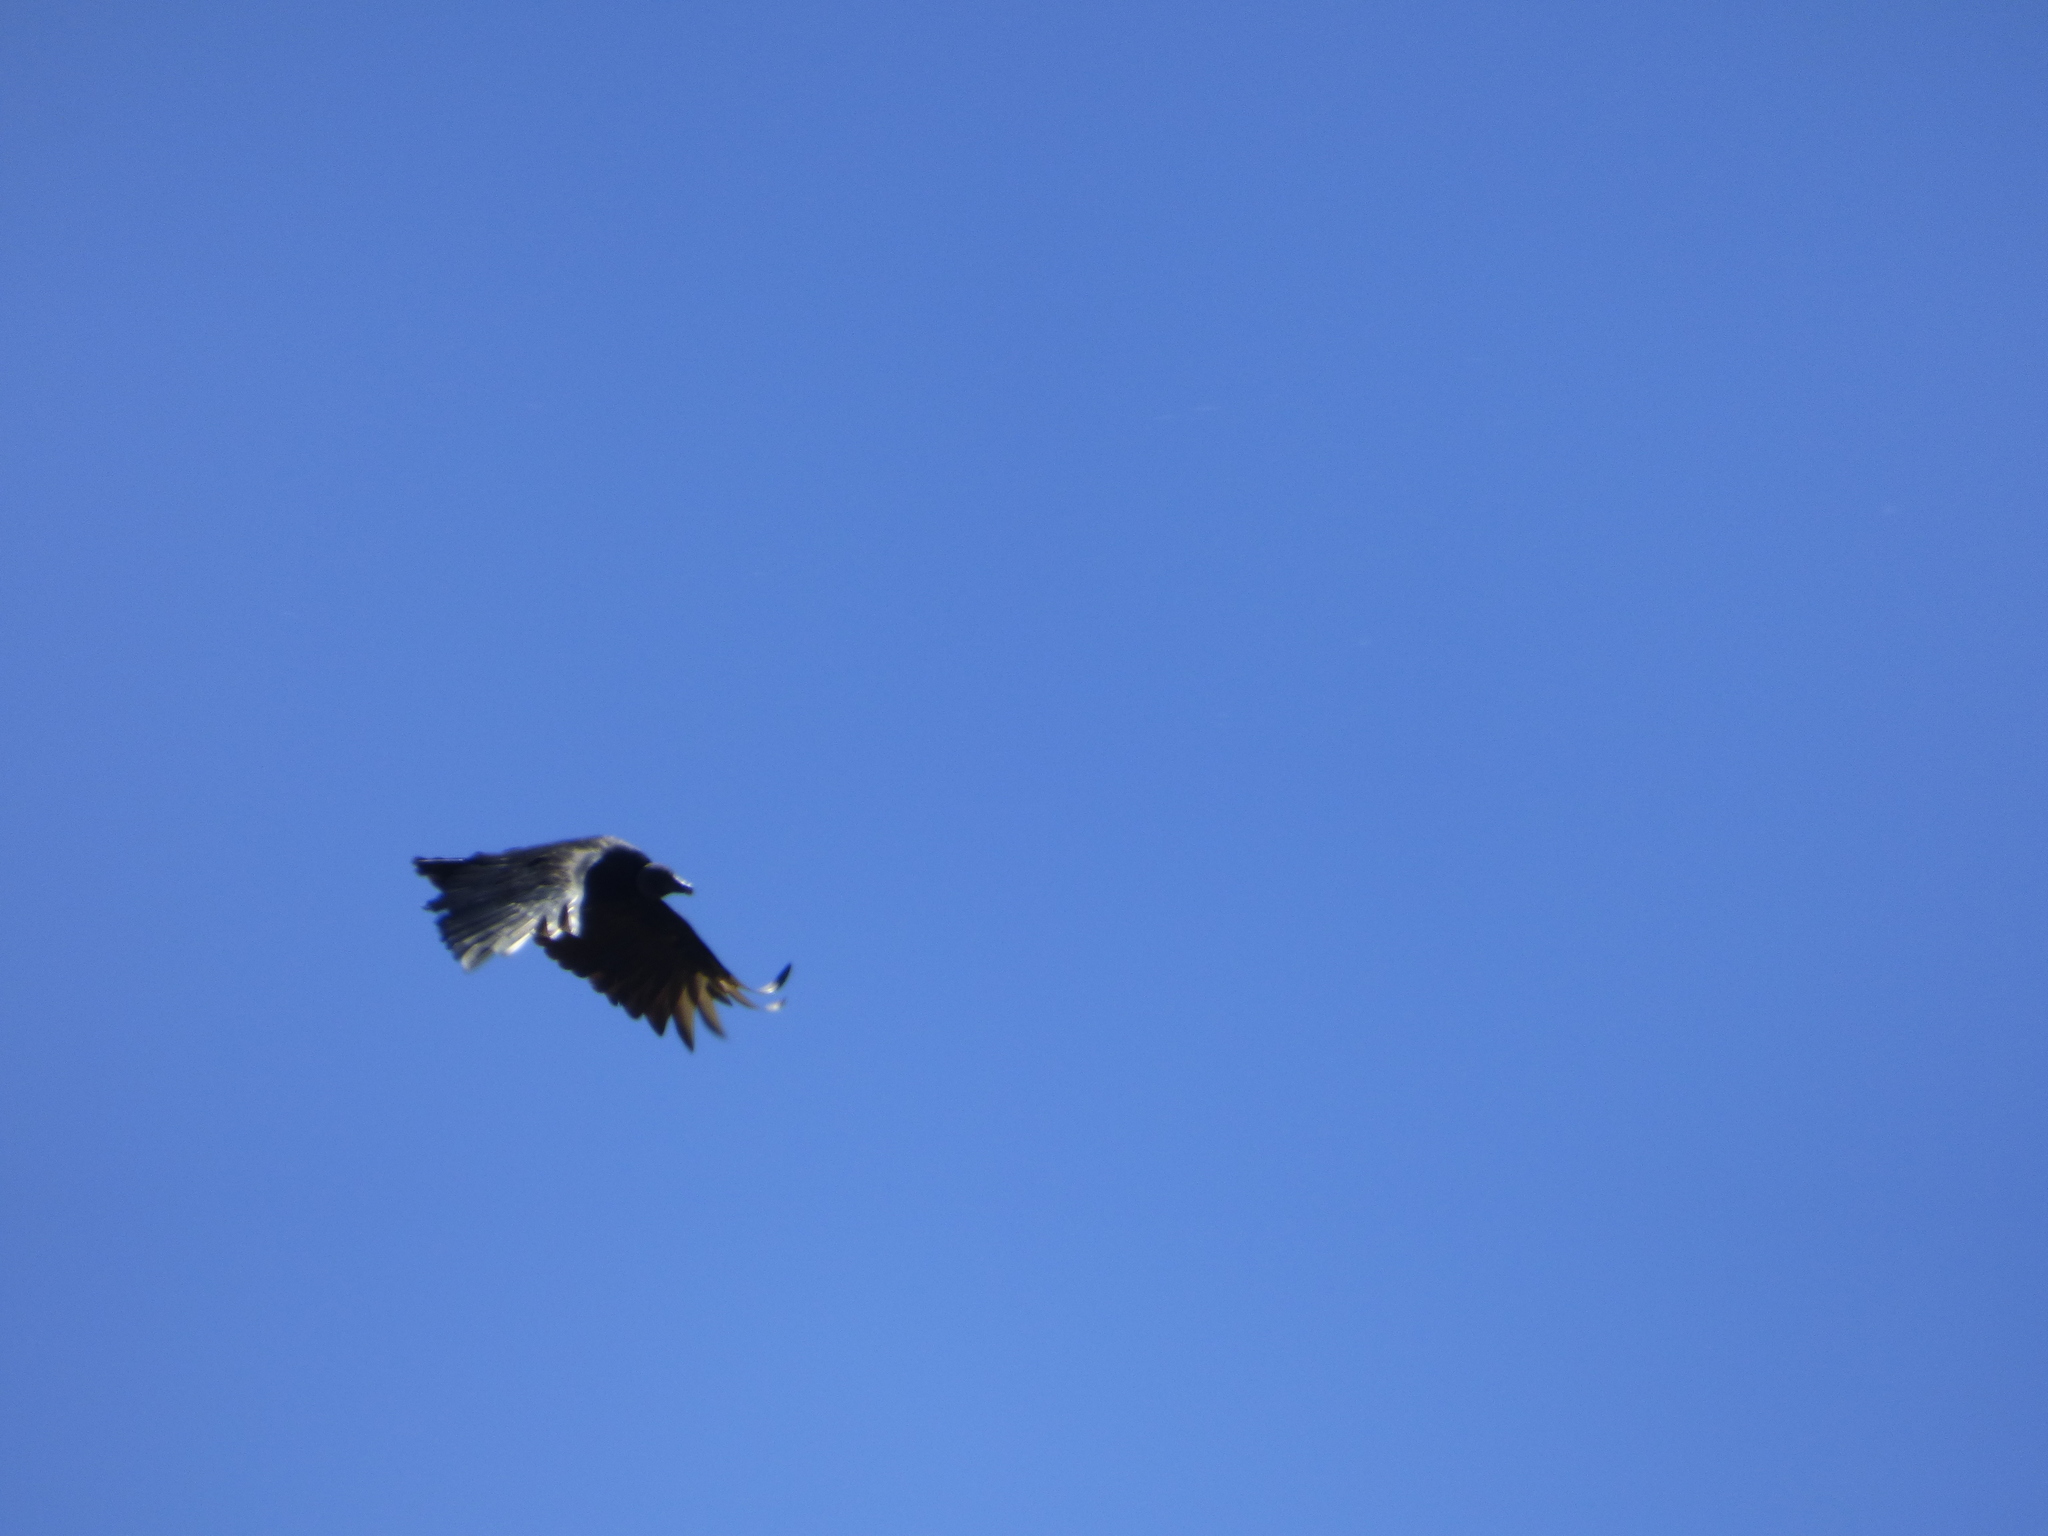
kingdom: Animalia
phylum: Chordata
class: Aves
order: Accipitriformes
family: Cathartidae
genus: Coragyps
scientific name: Coragyps atratus
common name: Black vulture
